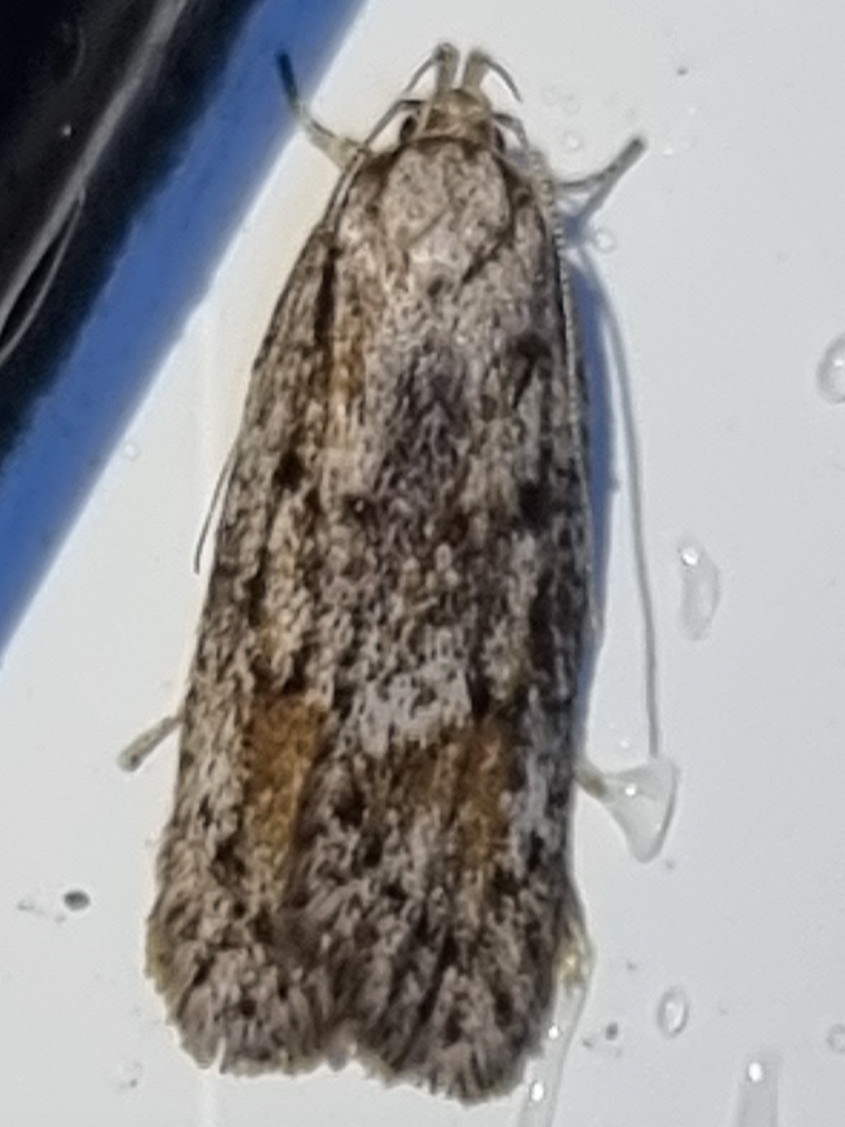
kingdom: Animalia
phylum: Arthropoda
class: Insecta
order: Lepidoptera
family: Oecophoridae
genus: Acantholena
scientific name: Acantholena siccella
